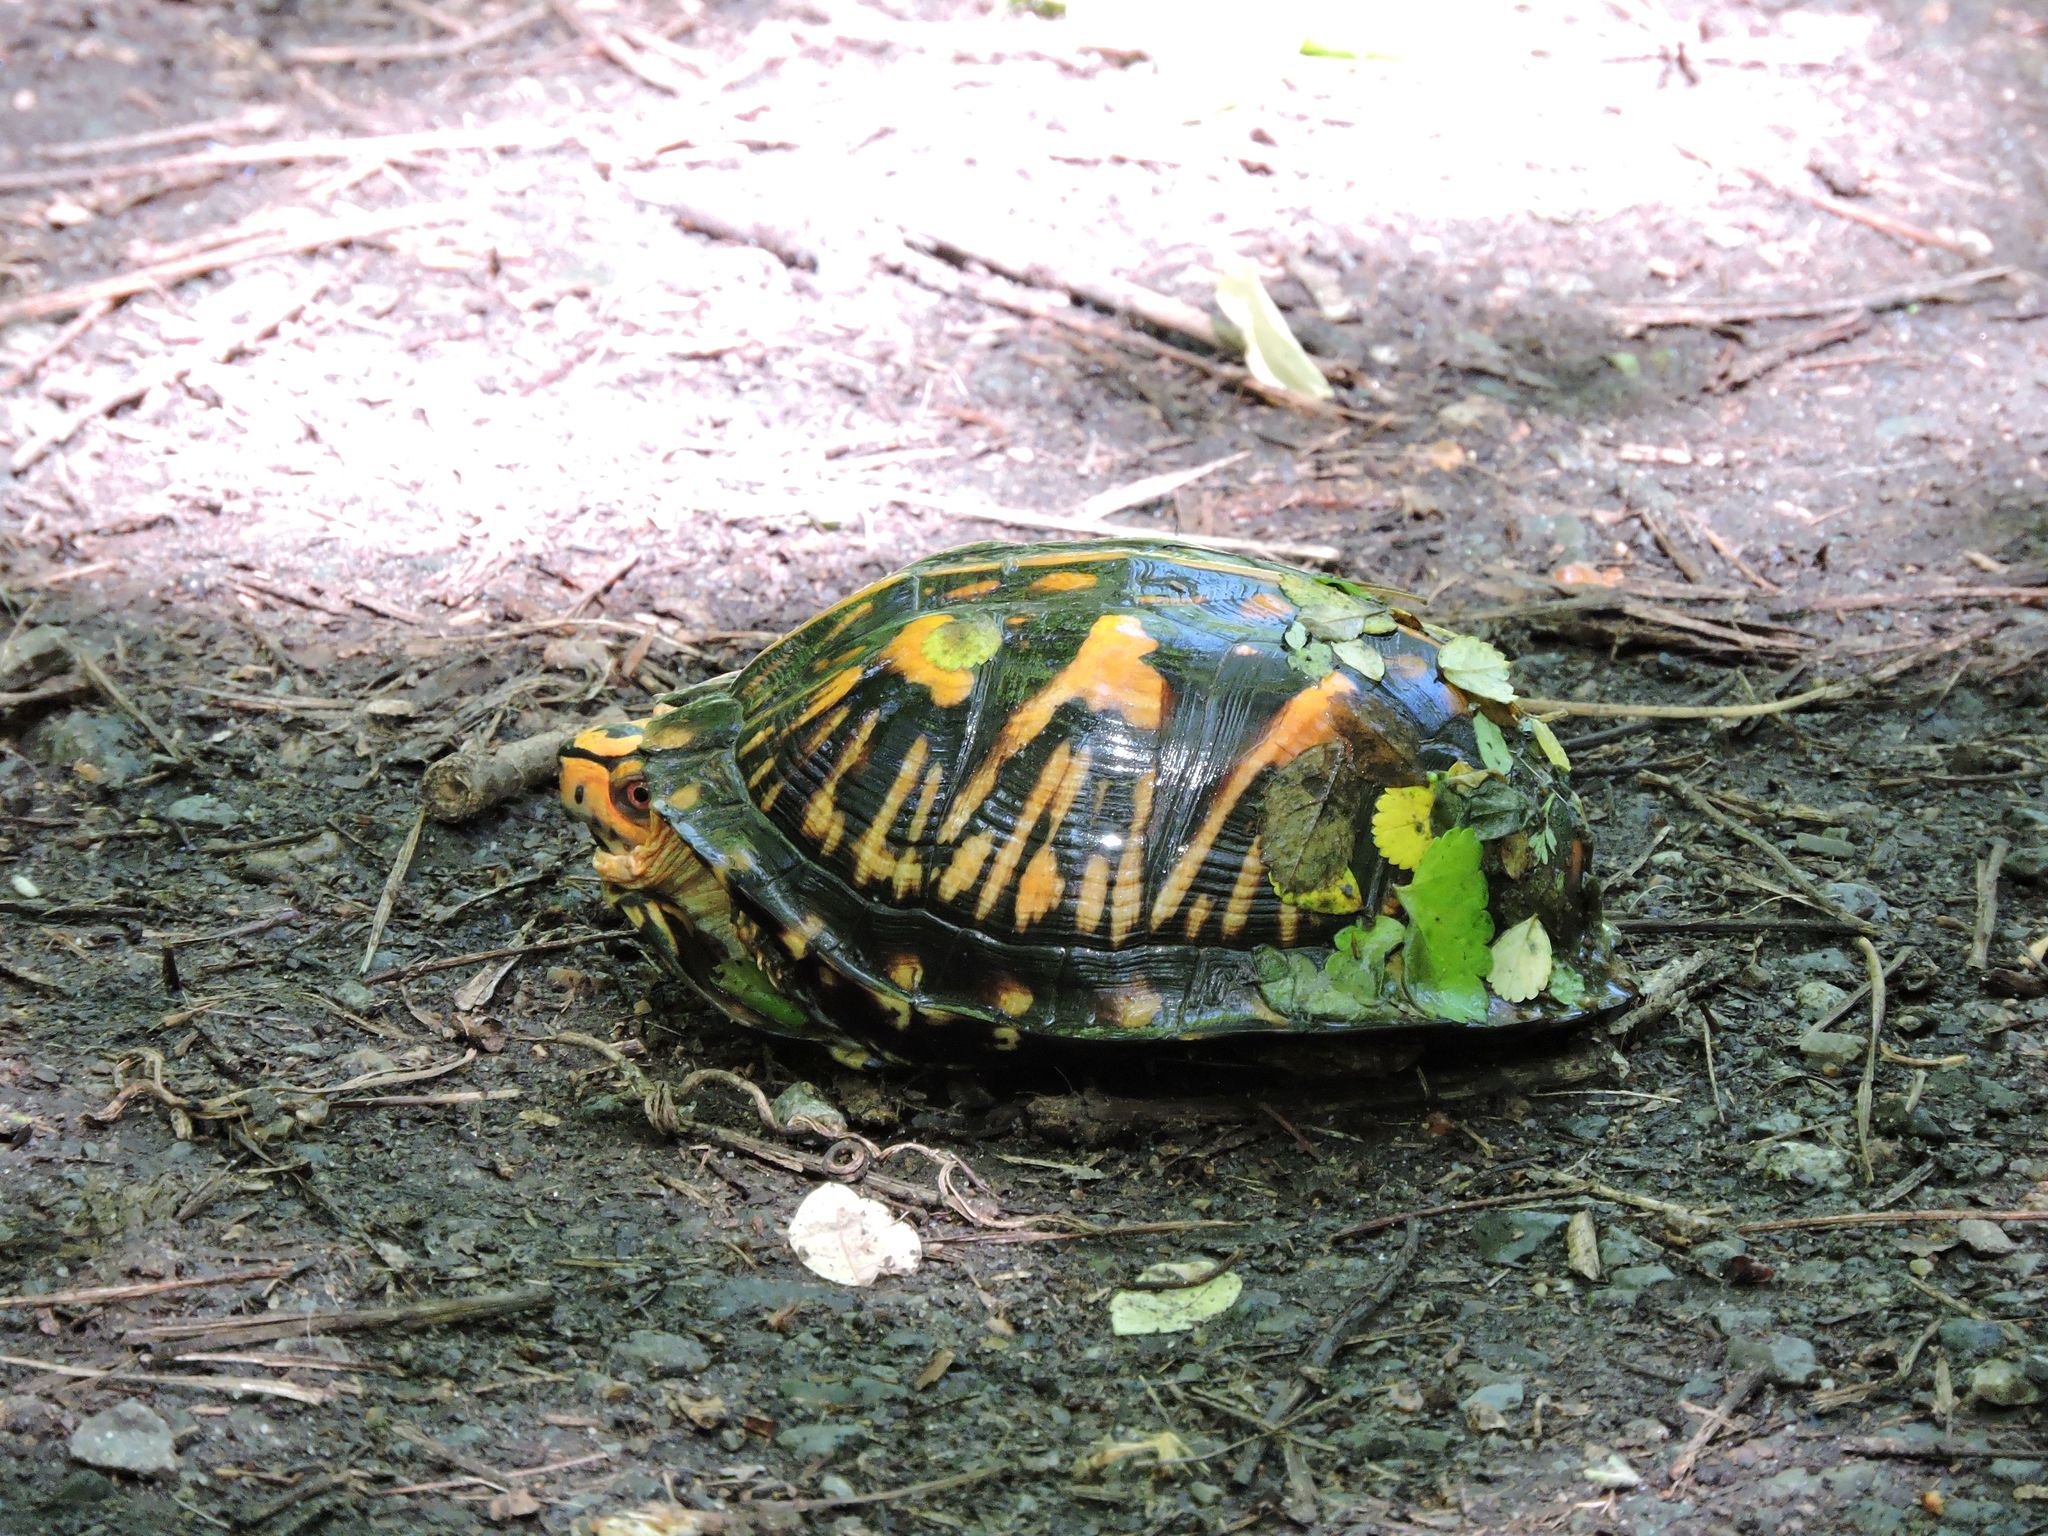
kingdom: Animalia
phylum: Chordata
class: Testudines
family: Emydidae
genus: Terrapene
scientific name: Terrapene carolina
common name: Common box turtle
